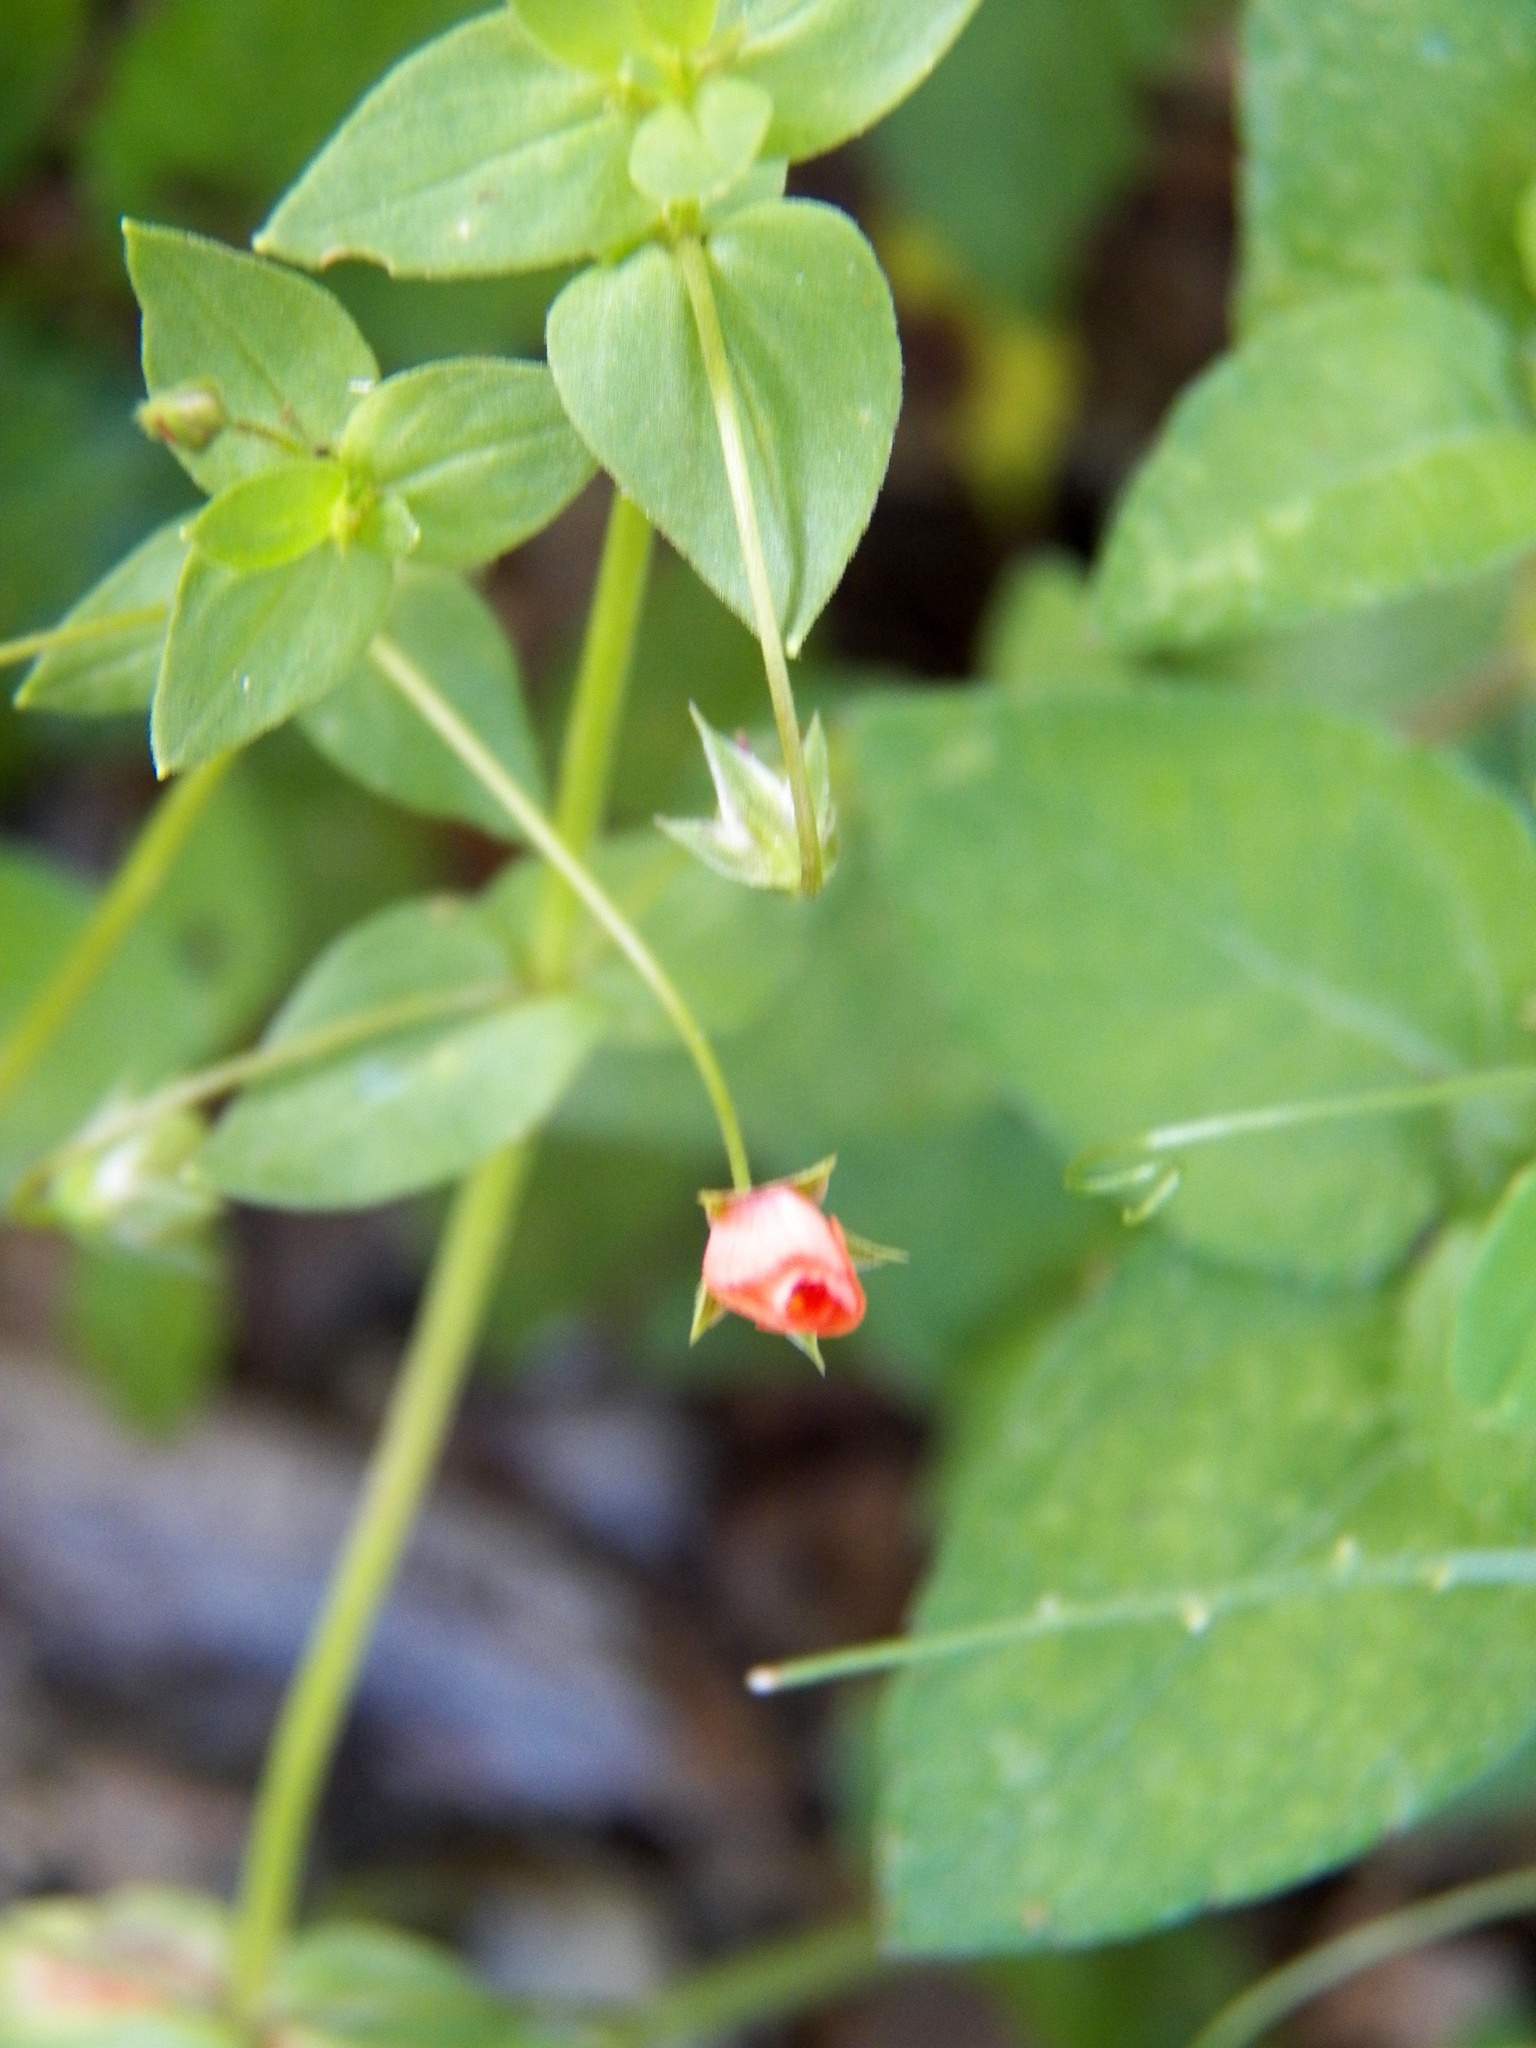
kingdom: Plantae
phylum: Tracheophyta
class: Magnoliopsida
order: Ericales
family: Primulaceae
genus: Lysimachia
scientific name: Lysimachia arvensis
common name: Scarlet pimpernel
